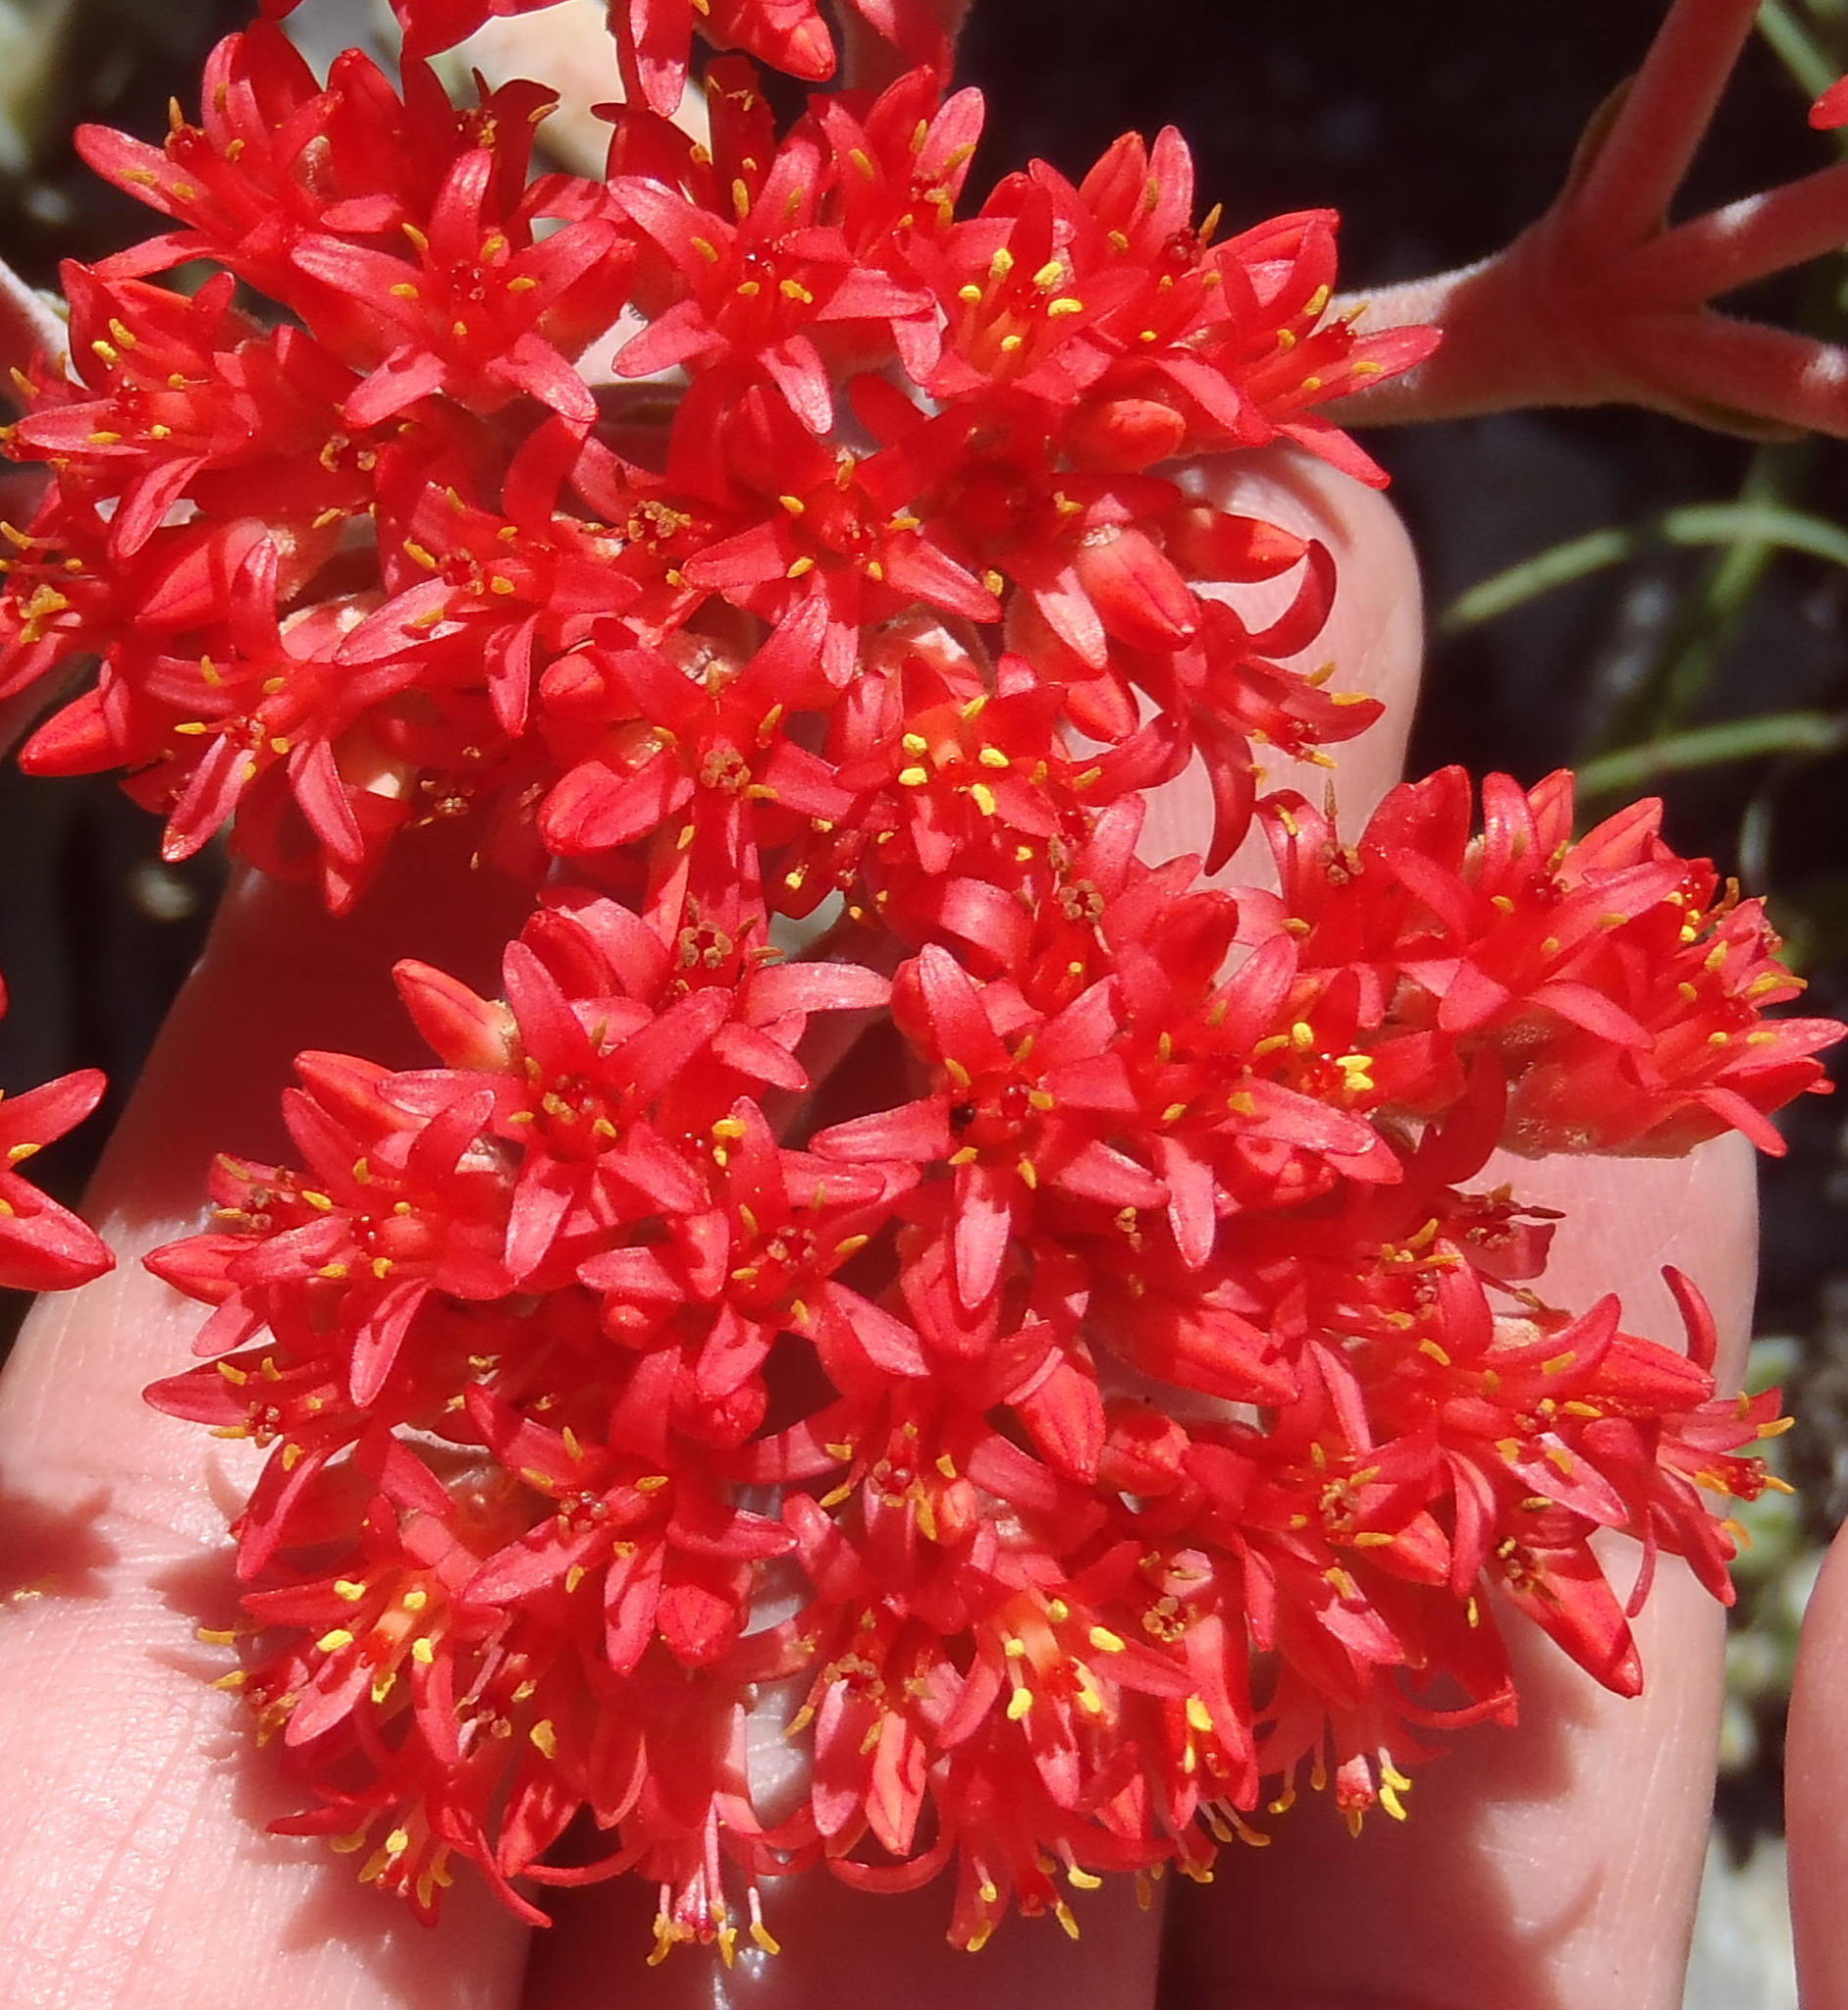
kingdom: Plantae
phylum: Tracheophyta
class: Magnoliopsida
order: Saxifragales
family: Crassulaceae
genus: Crassula
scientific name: Crassula perfoliata
